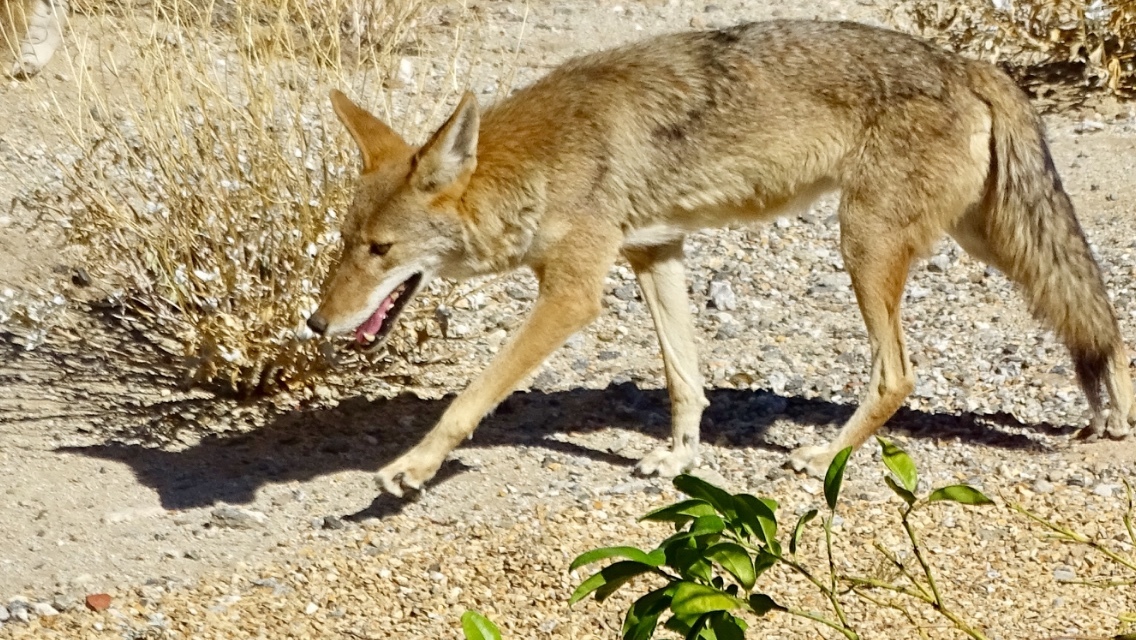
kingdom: Animalia
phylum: Chordata
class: Mammalia
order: Carnivora
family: Canidae
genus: Canis
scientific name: Canis latrans
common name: Coyote
